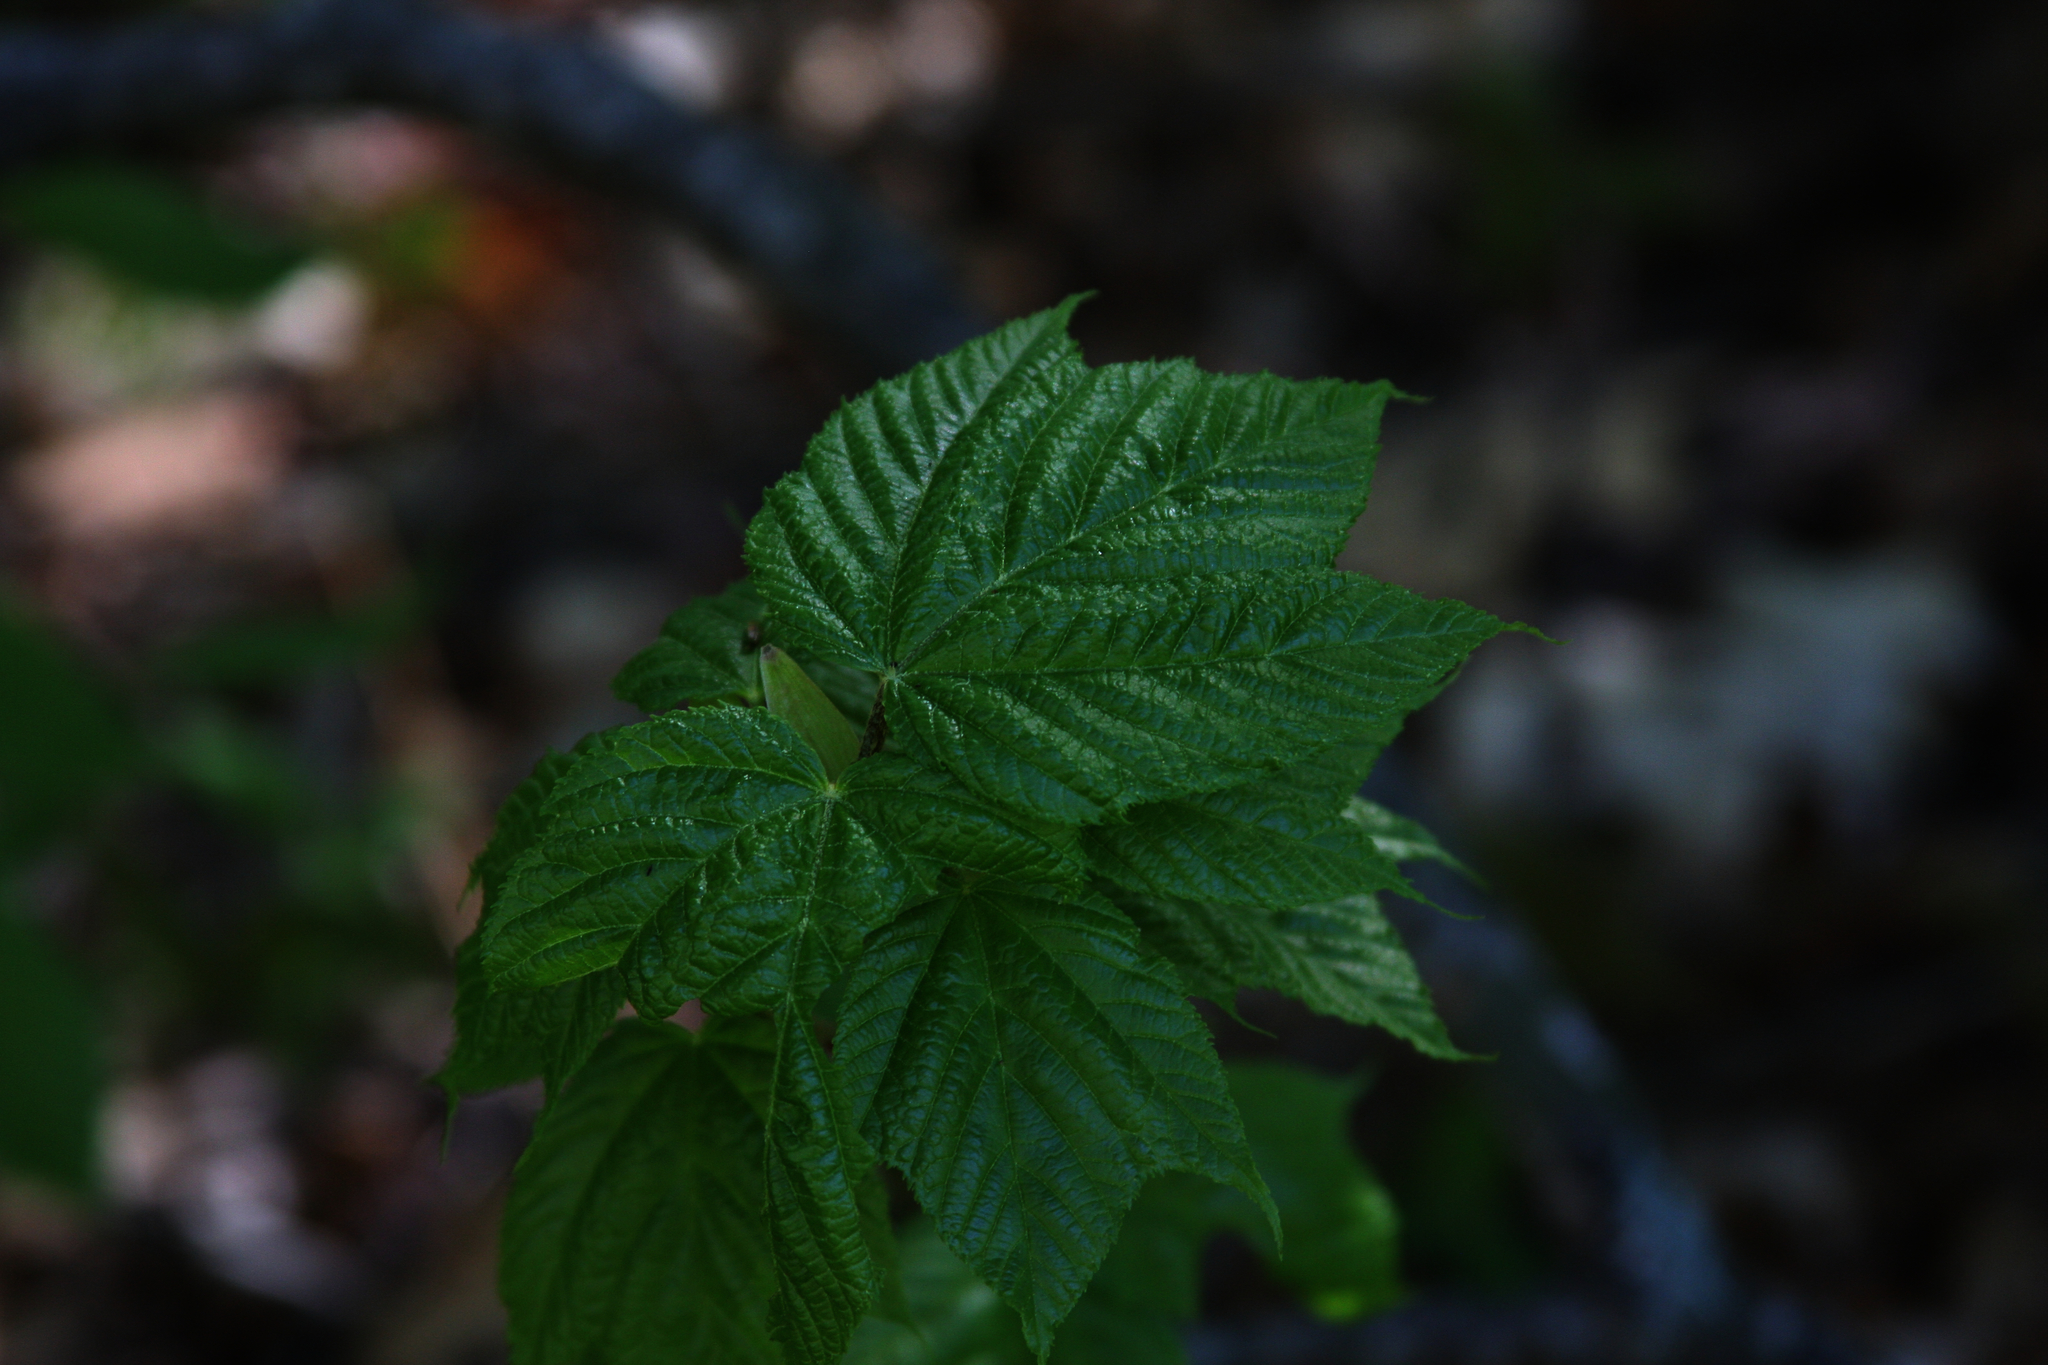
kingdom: Plantae
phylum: Tracheophyta
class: Magnoliopsida
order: Sapindales
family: Sapindaceae
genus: Acer
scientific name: Acer pensylvanicum
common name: Moosewood
